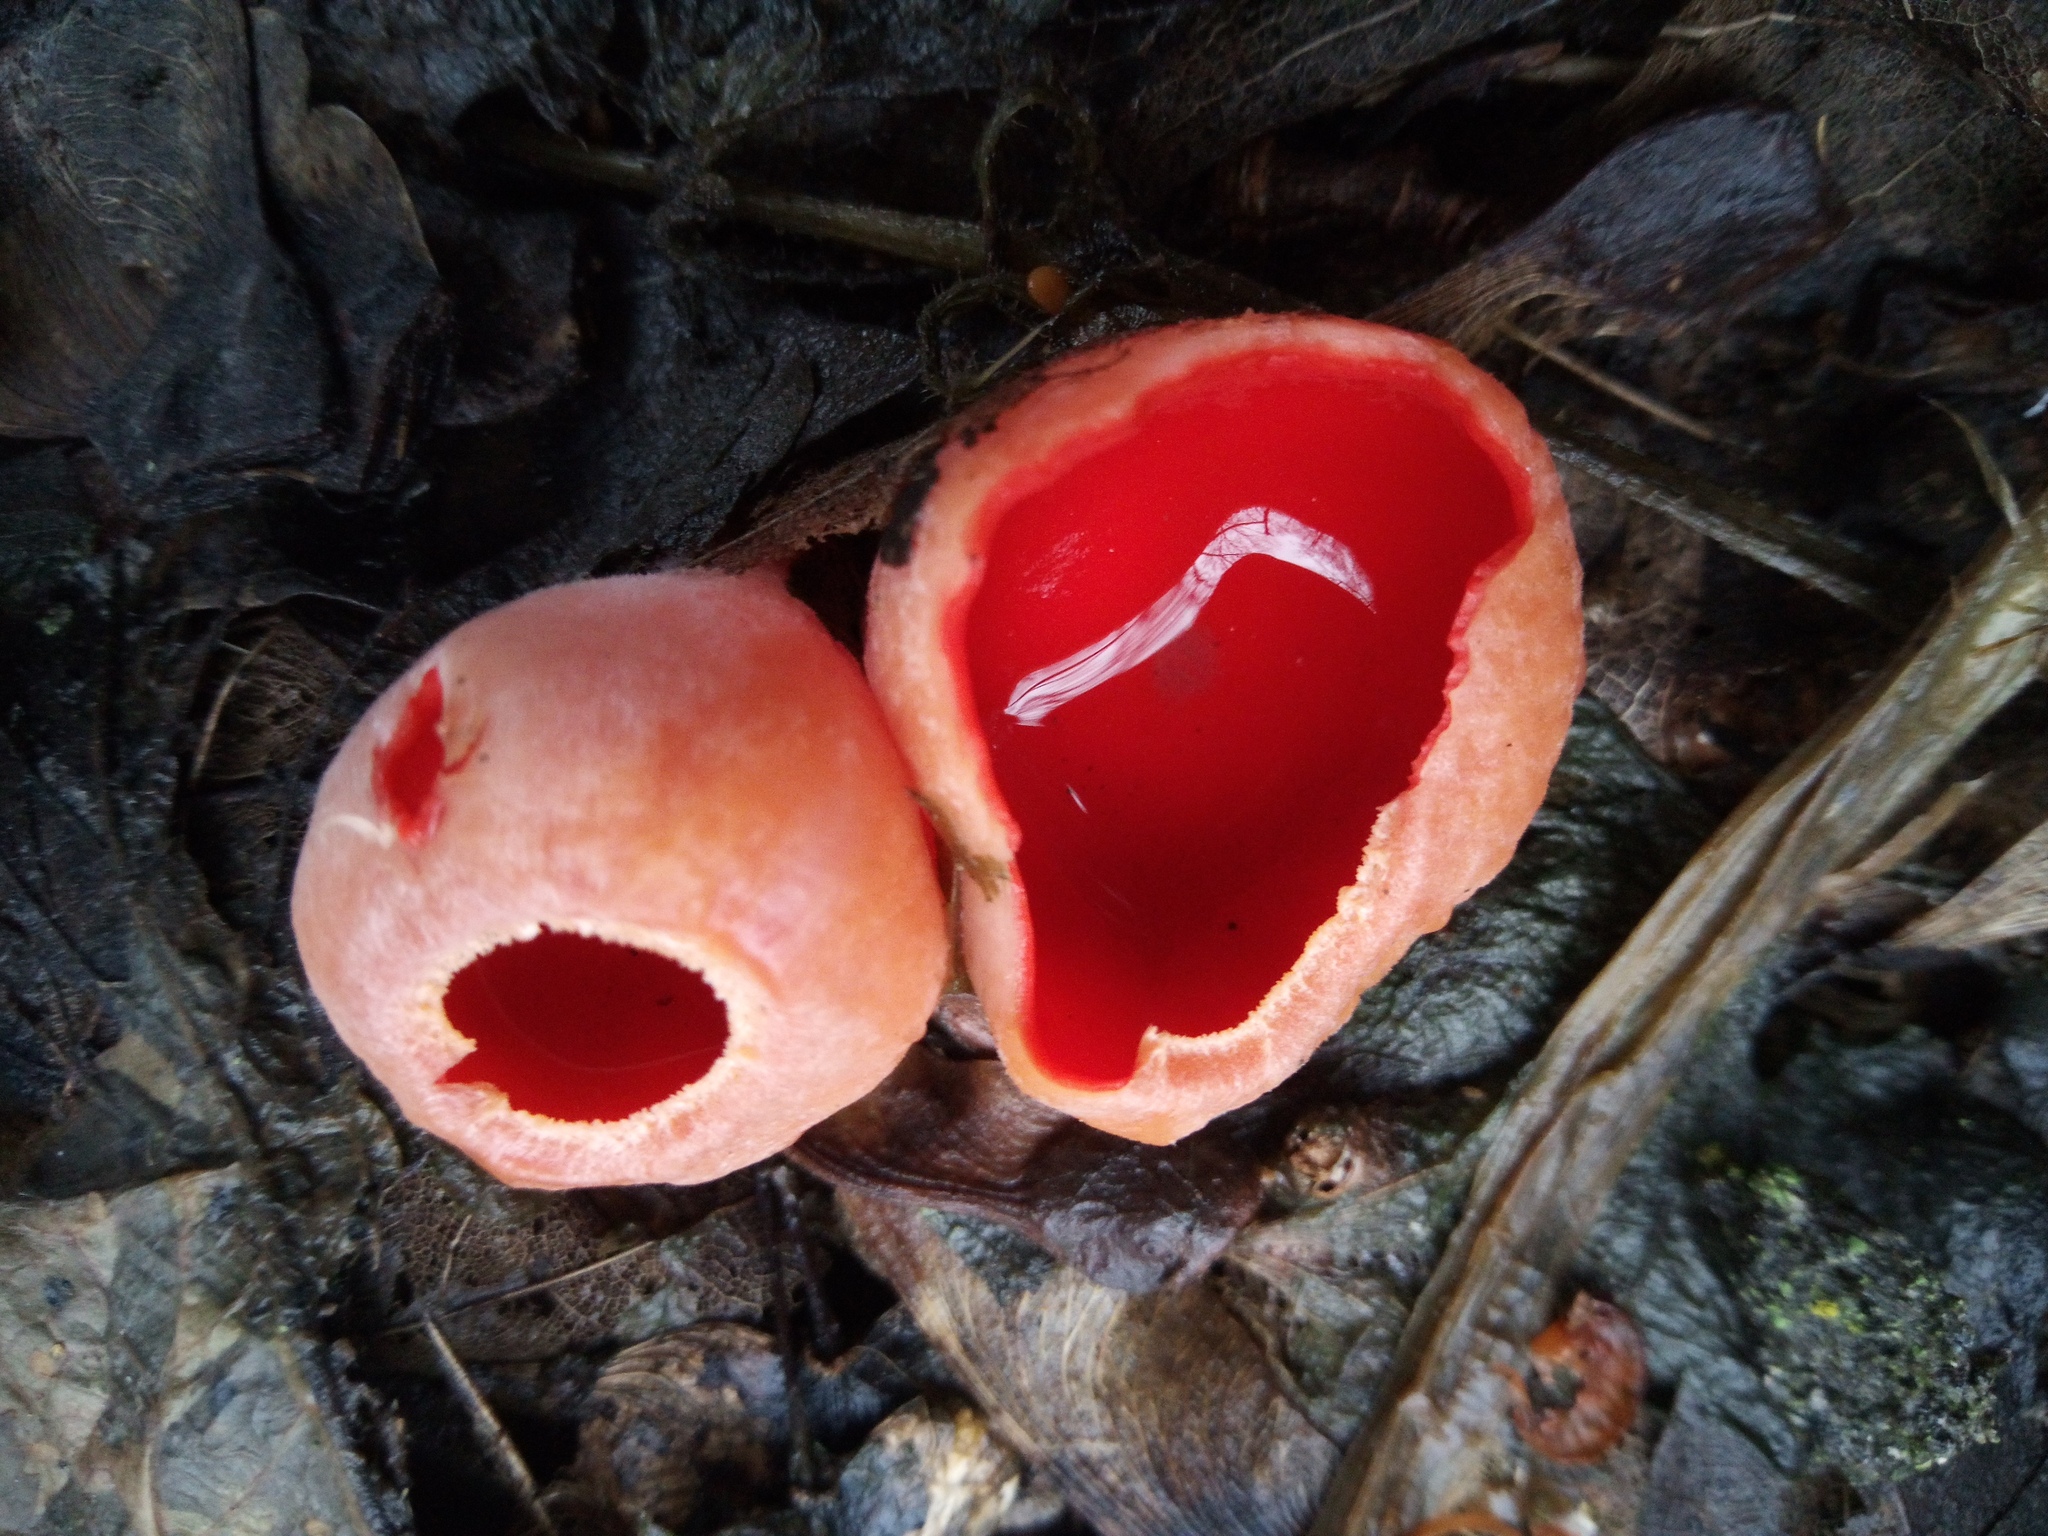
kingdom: Fungi
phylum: Ascomycota
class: Pezizomycetes
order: Pezizales
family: Sarcoscyphaceae
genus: Sarcoscypha
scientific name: Sarcoscypha coccinea
